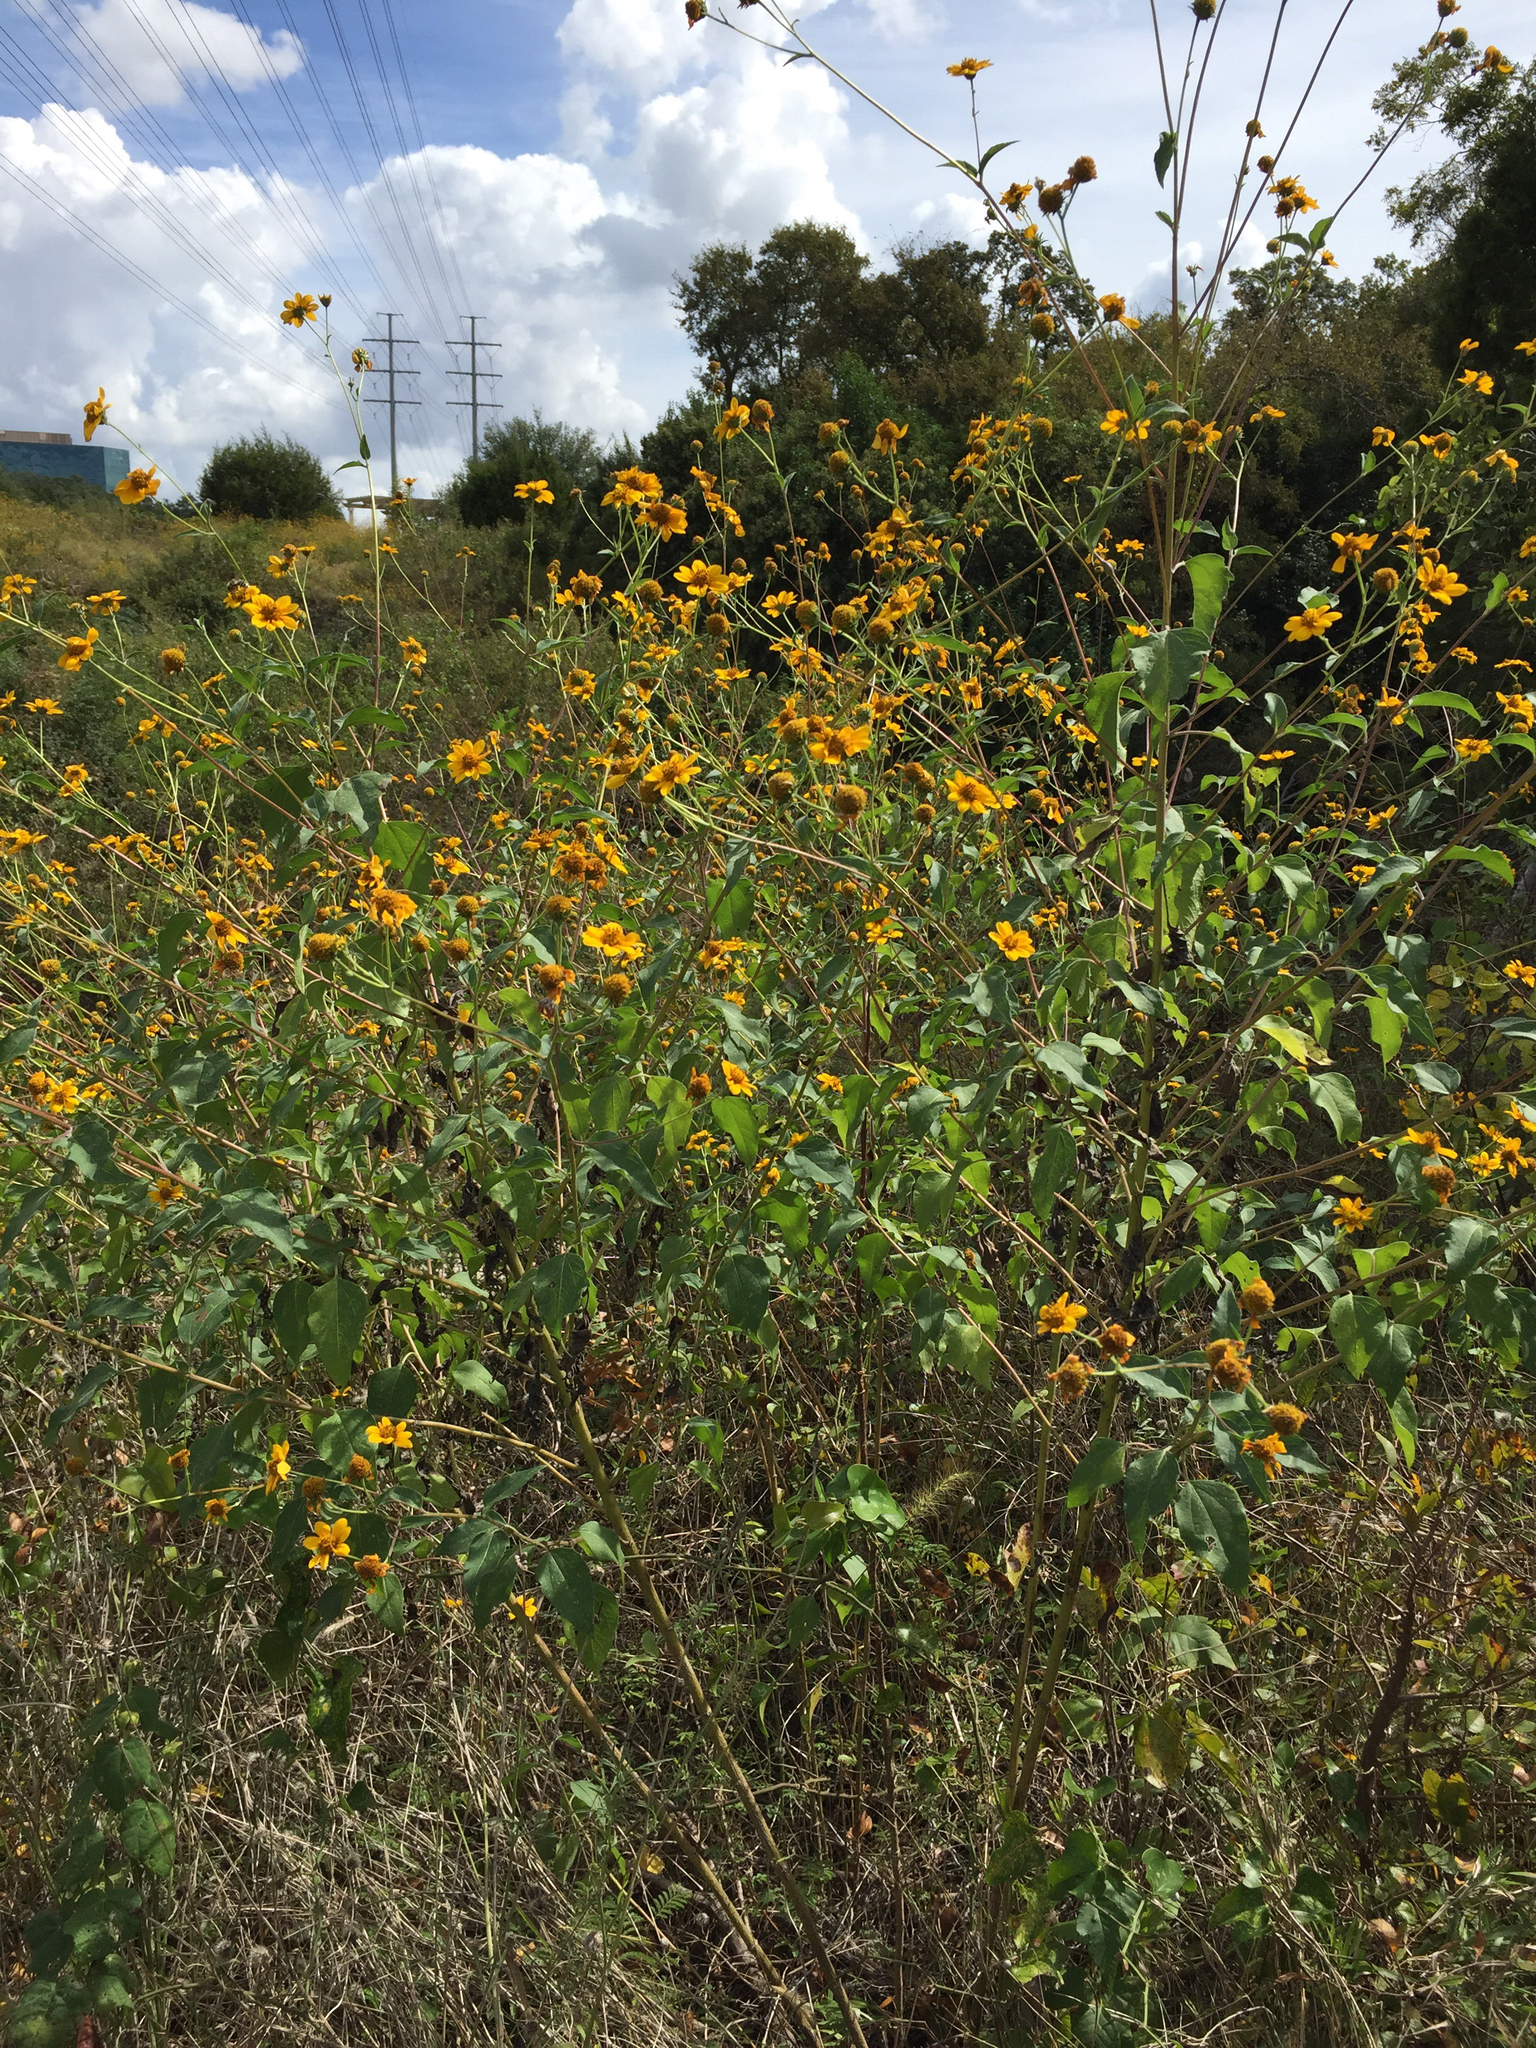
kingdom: Plantae
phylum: Tracheophyta
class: Magnoliopsida
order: Asterales
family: Asteraceae
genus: Viguiera
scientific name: Viguiera dentata
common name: Toothleaf
